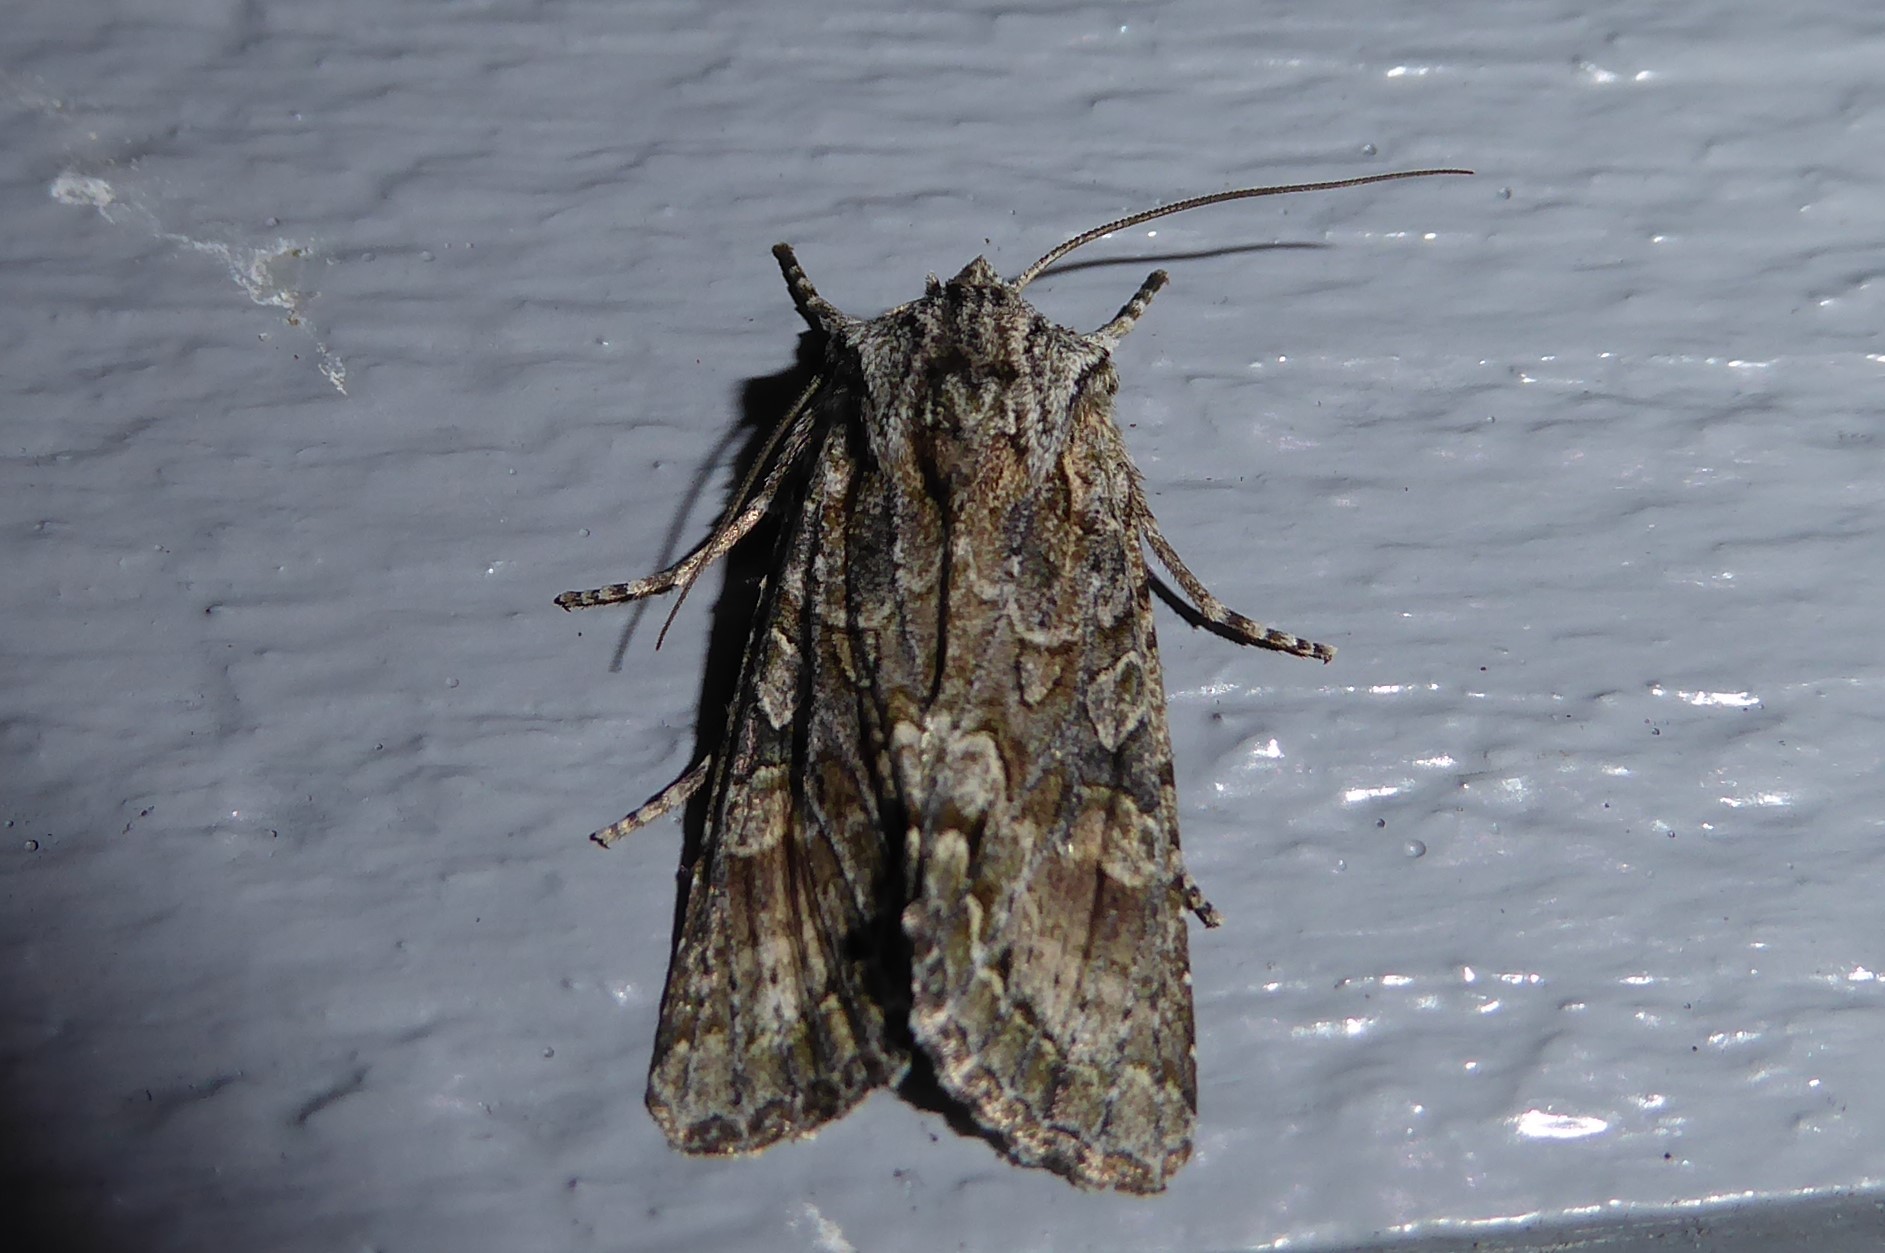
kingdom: Animalia
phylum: Arthropoda
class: Insecta
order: Lepidoptera
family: Noctuidae
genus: Ichneutica
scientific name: Ichneutica mutans
